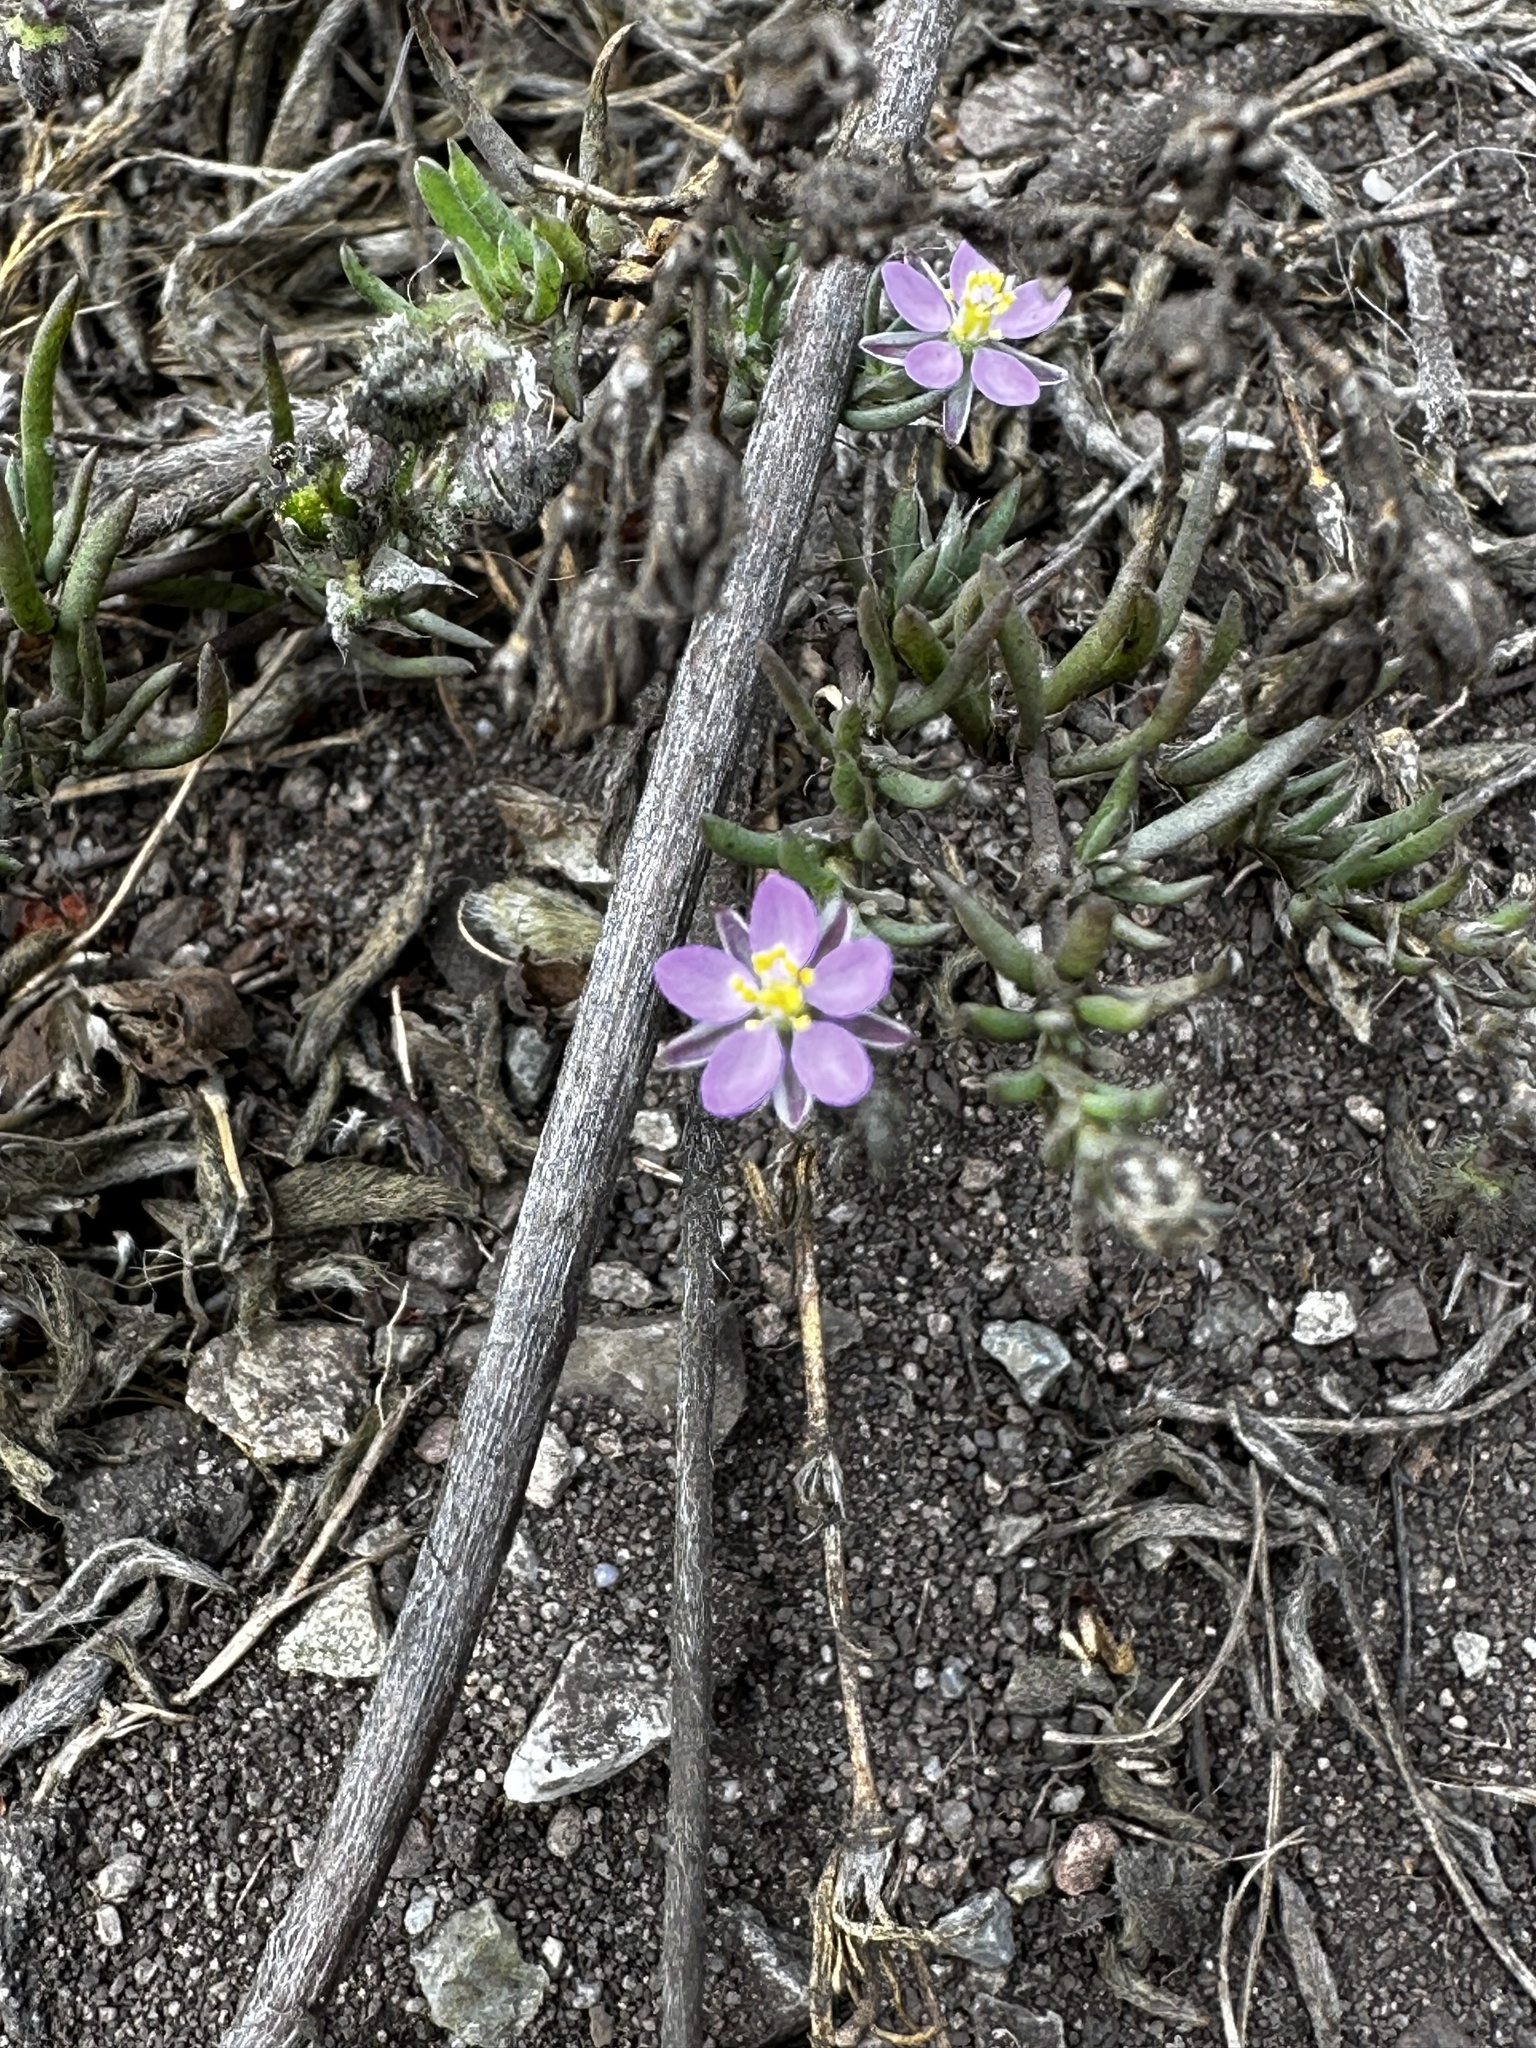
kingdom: Plantae
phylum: Tracheophyta
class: Magnoliopsida
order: Caryophyllales
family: Caryophyllaceae
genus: Spergularia
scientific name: Spergularia rubra
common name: Red sand-spurrey
